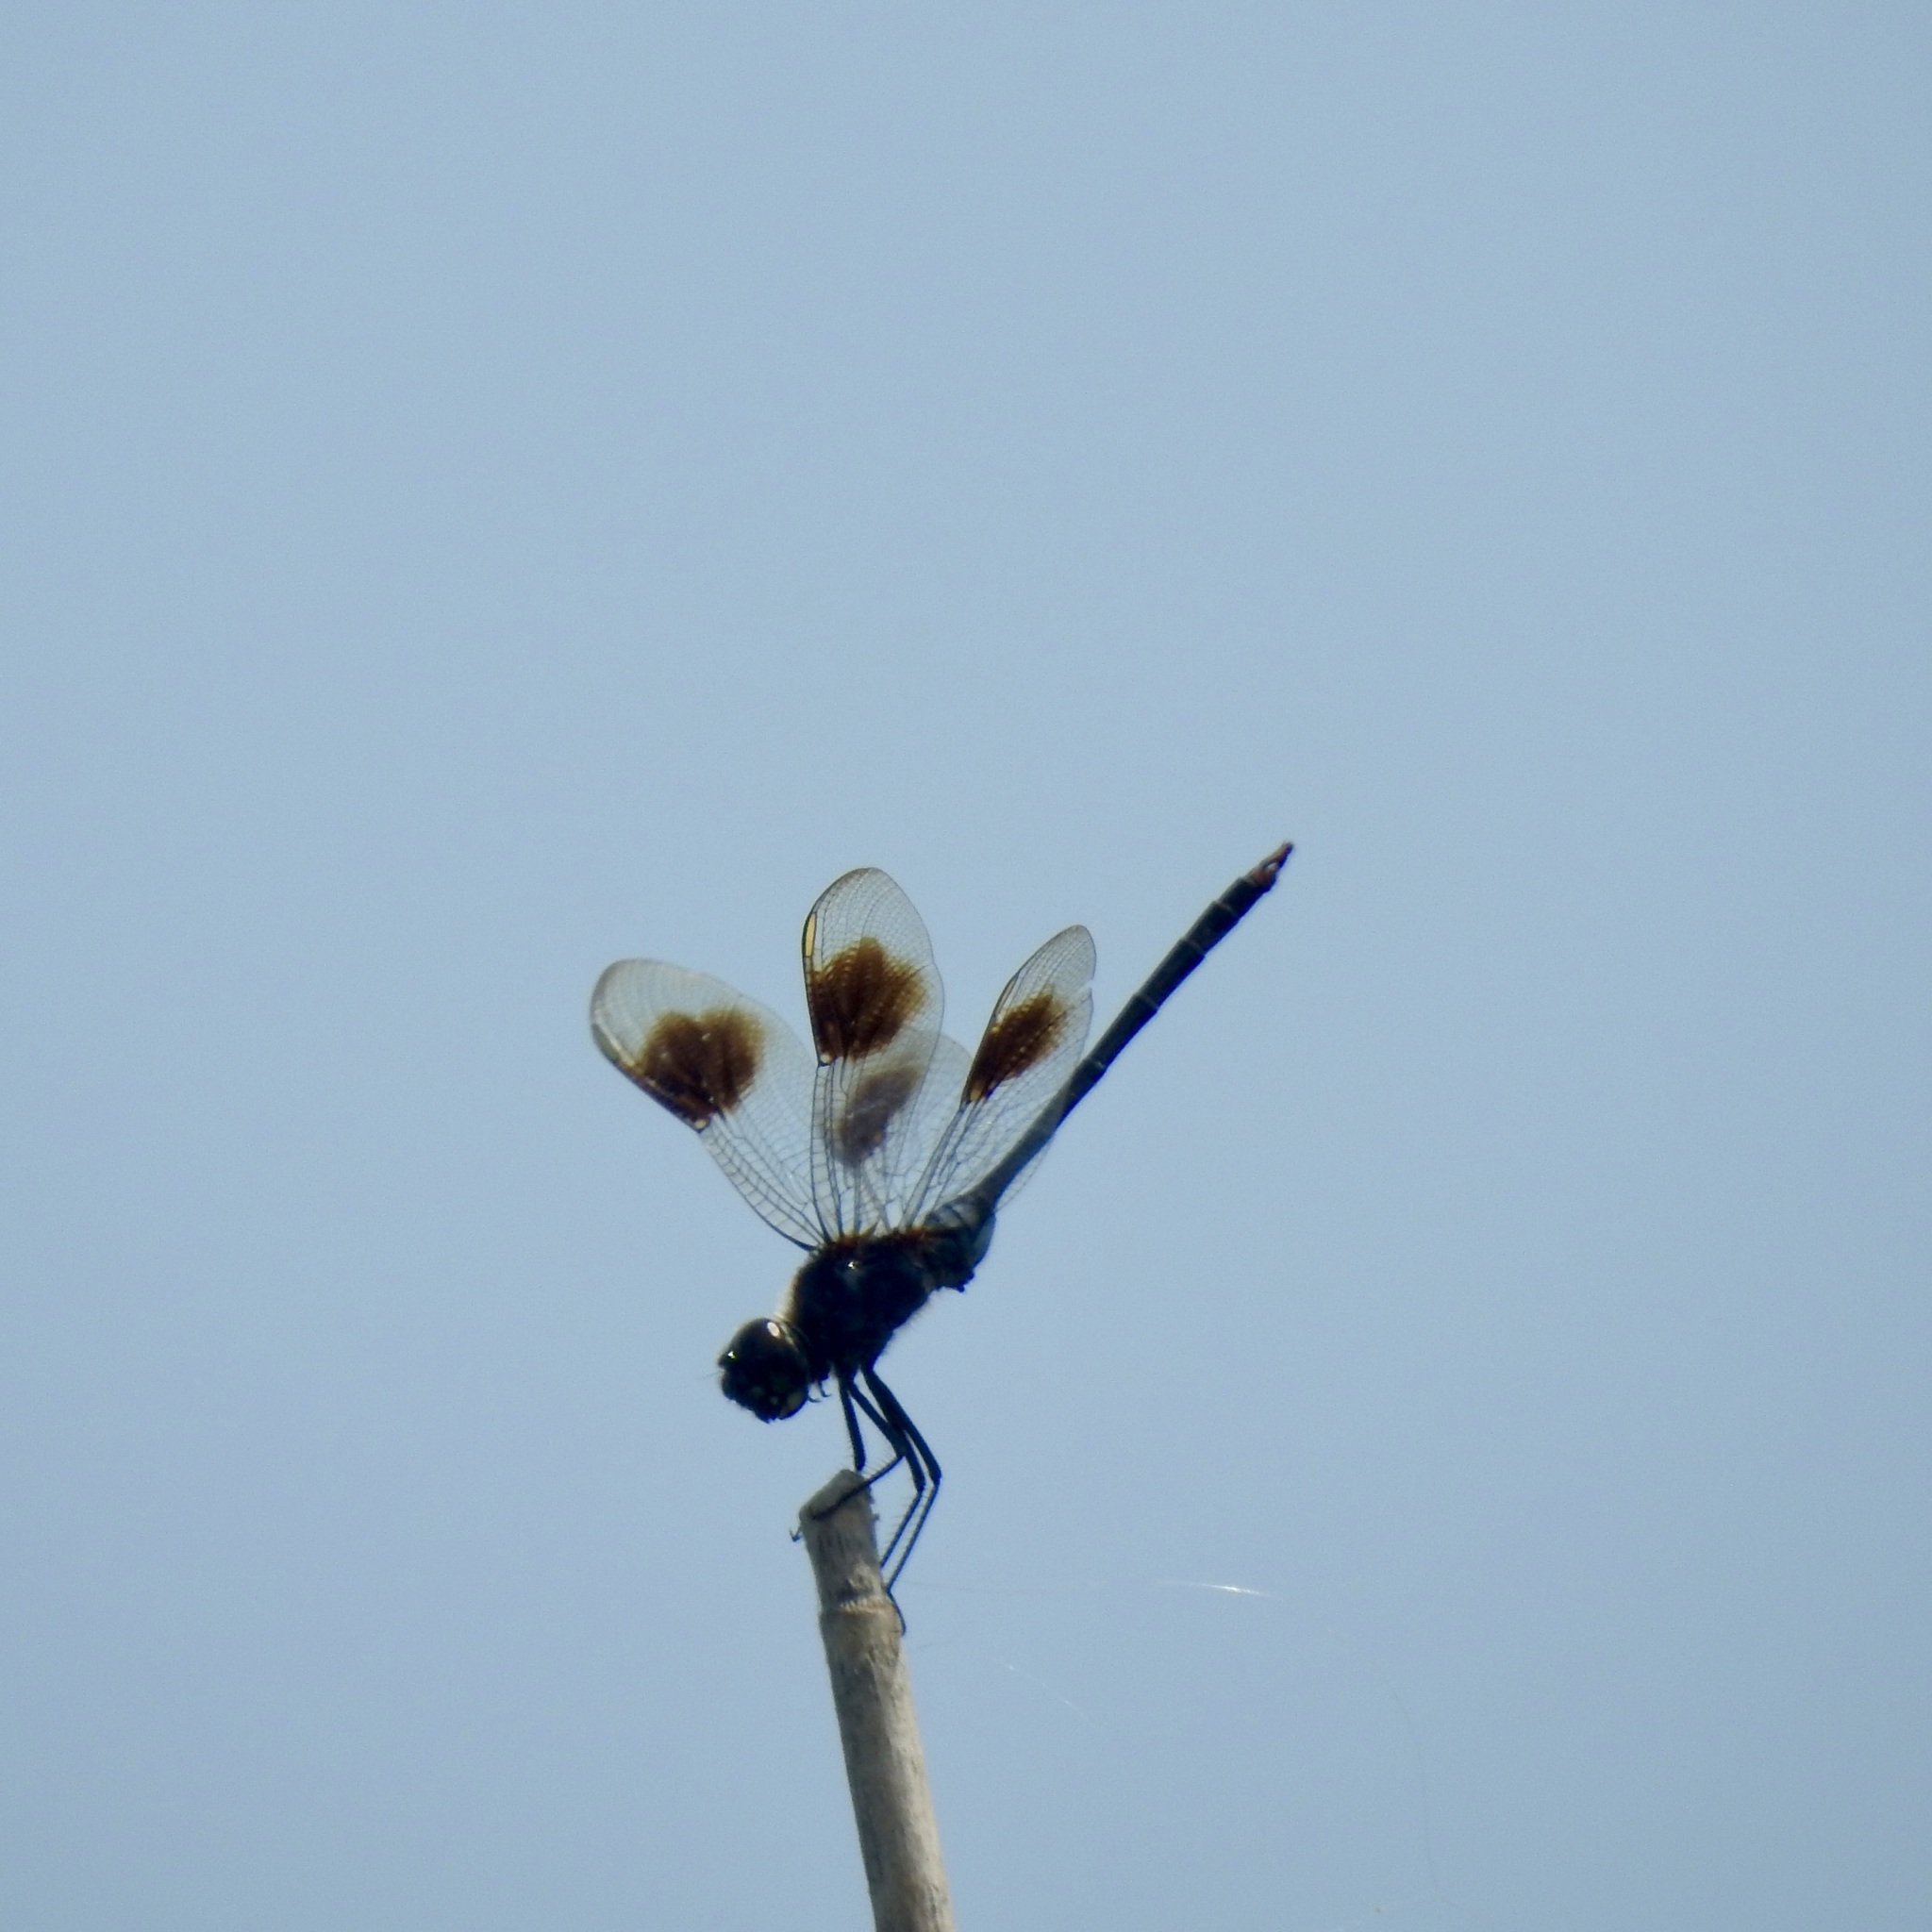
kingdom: Animalia
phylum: Arthropoda
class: Insecta
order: Odonata
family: Libellulidae
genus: Brachymesia
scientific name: Brachymesia gravida
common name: Four-spotted pennant
